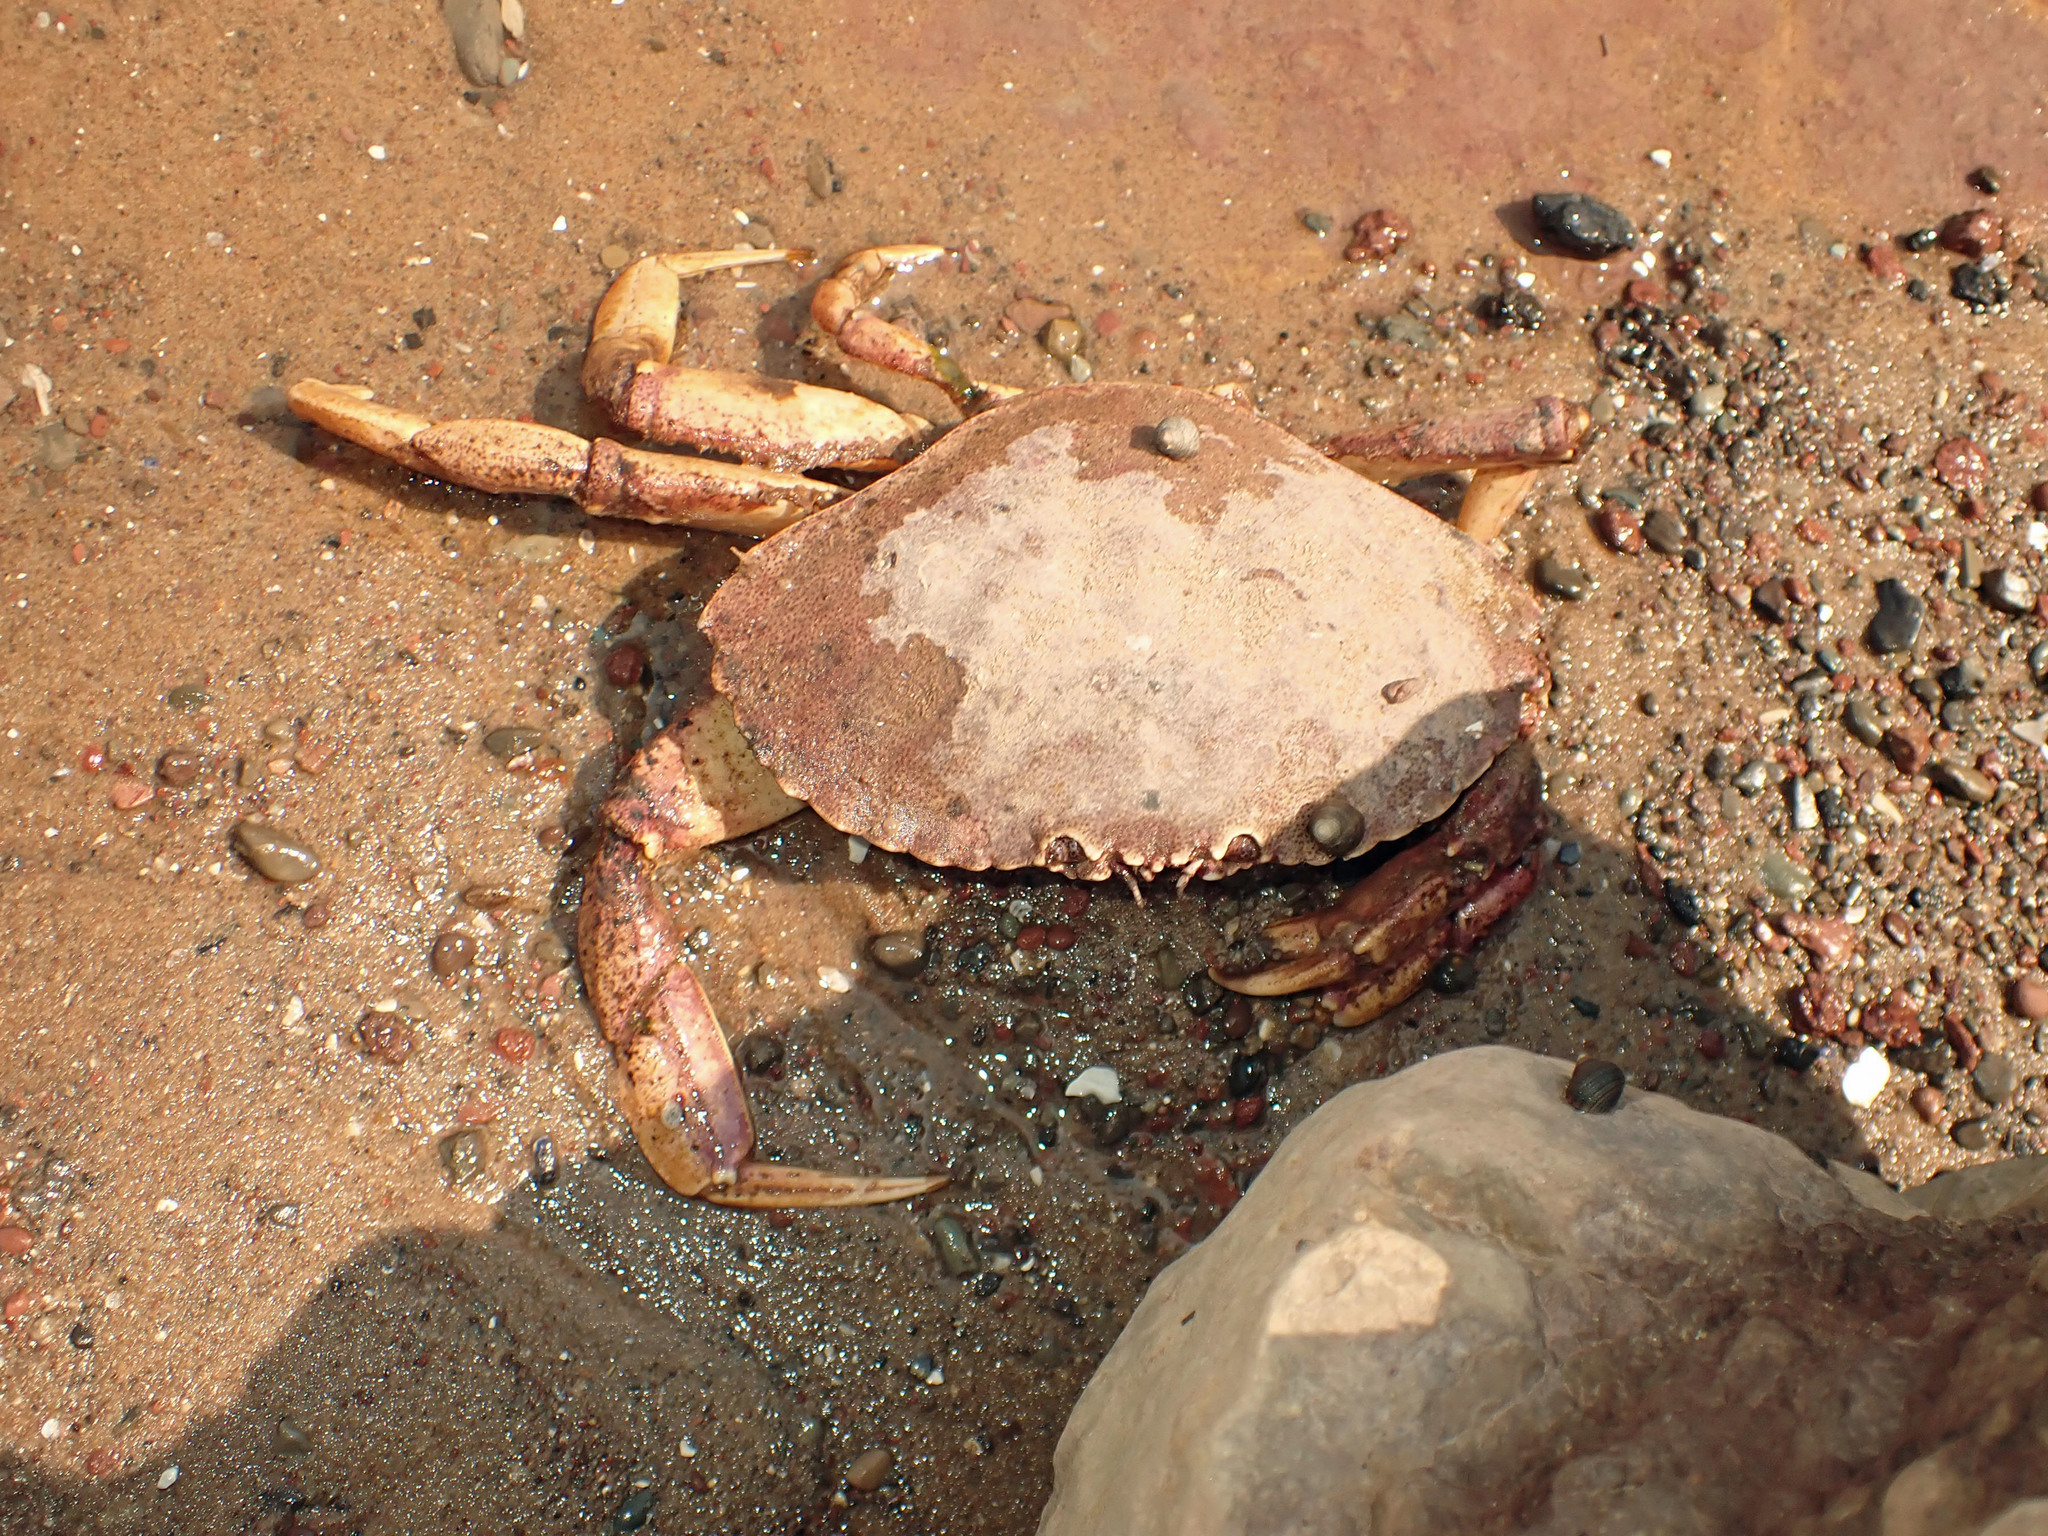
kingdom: Animalia
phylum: Arthropoda
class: Malacostraca
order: Decapoda
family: Cancridae
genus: Cancer
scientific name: Cancer irroratus
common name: Atlantic rock crab
